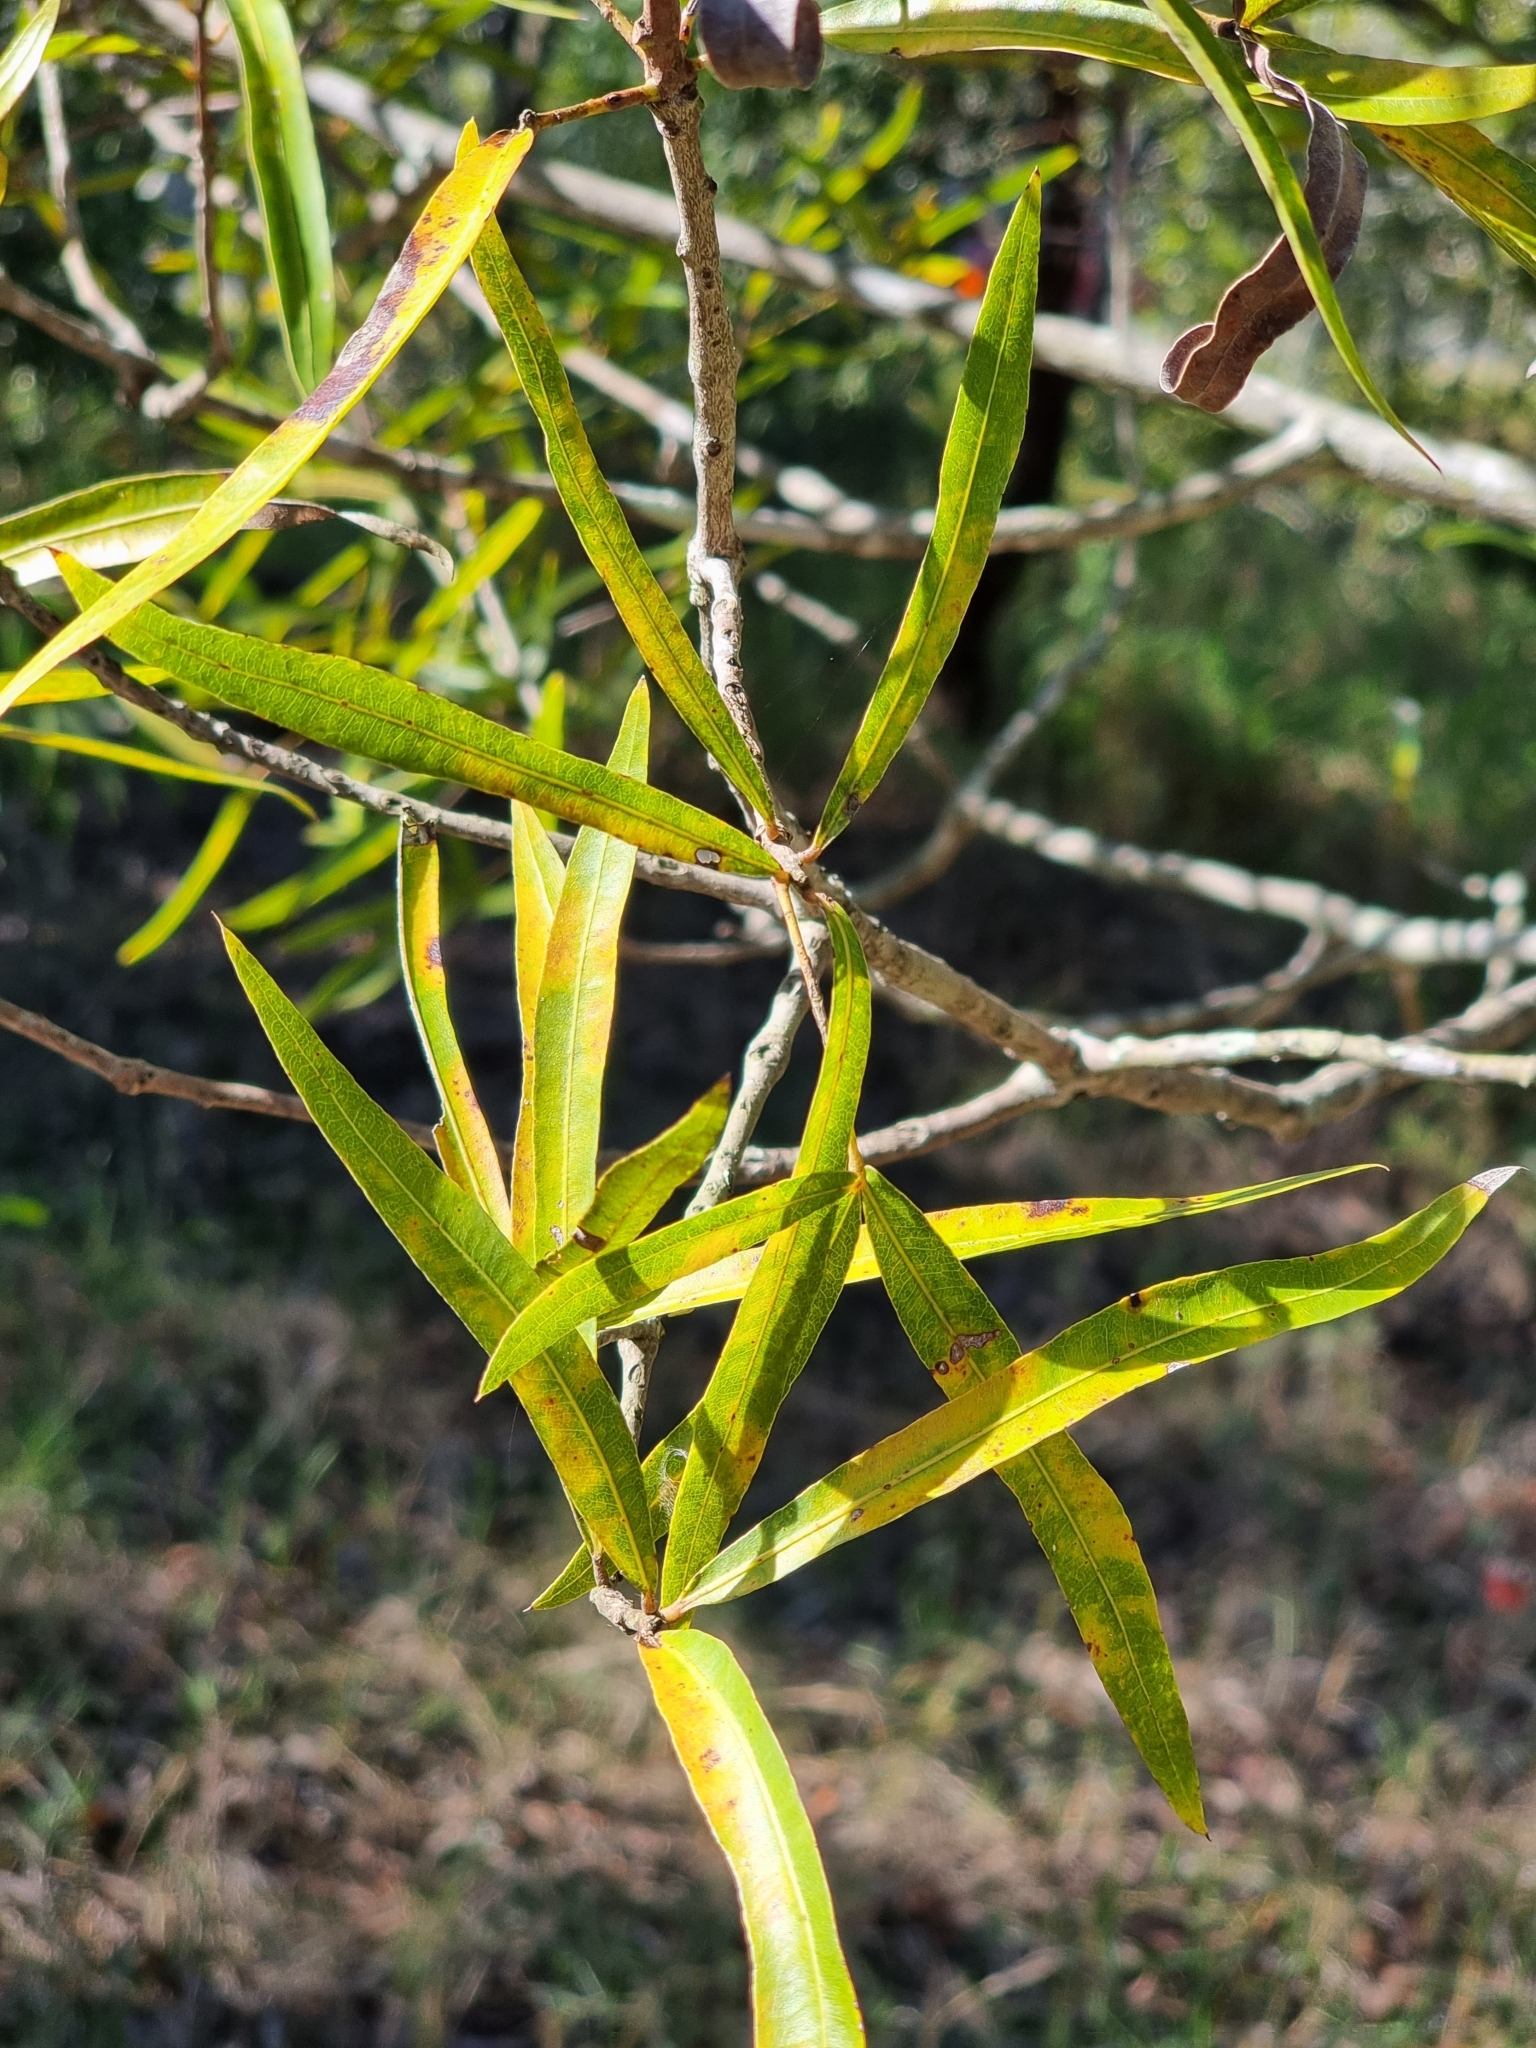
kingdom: Plantae
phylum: Tracheophyta
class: Magnoliopsida
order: Malvales
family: Malvaceae
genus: Brachychiton
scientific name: Brachychiton rupestris
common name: Queensland bottletree
